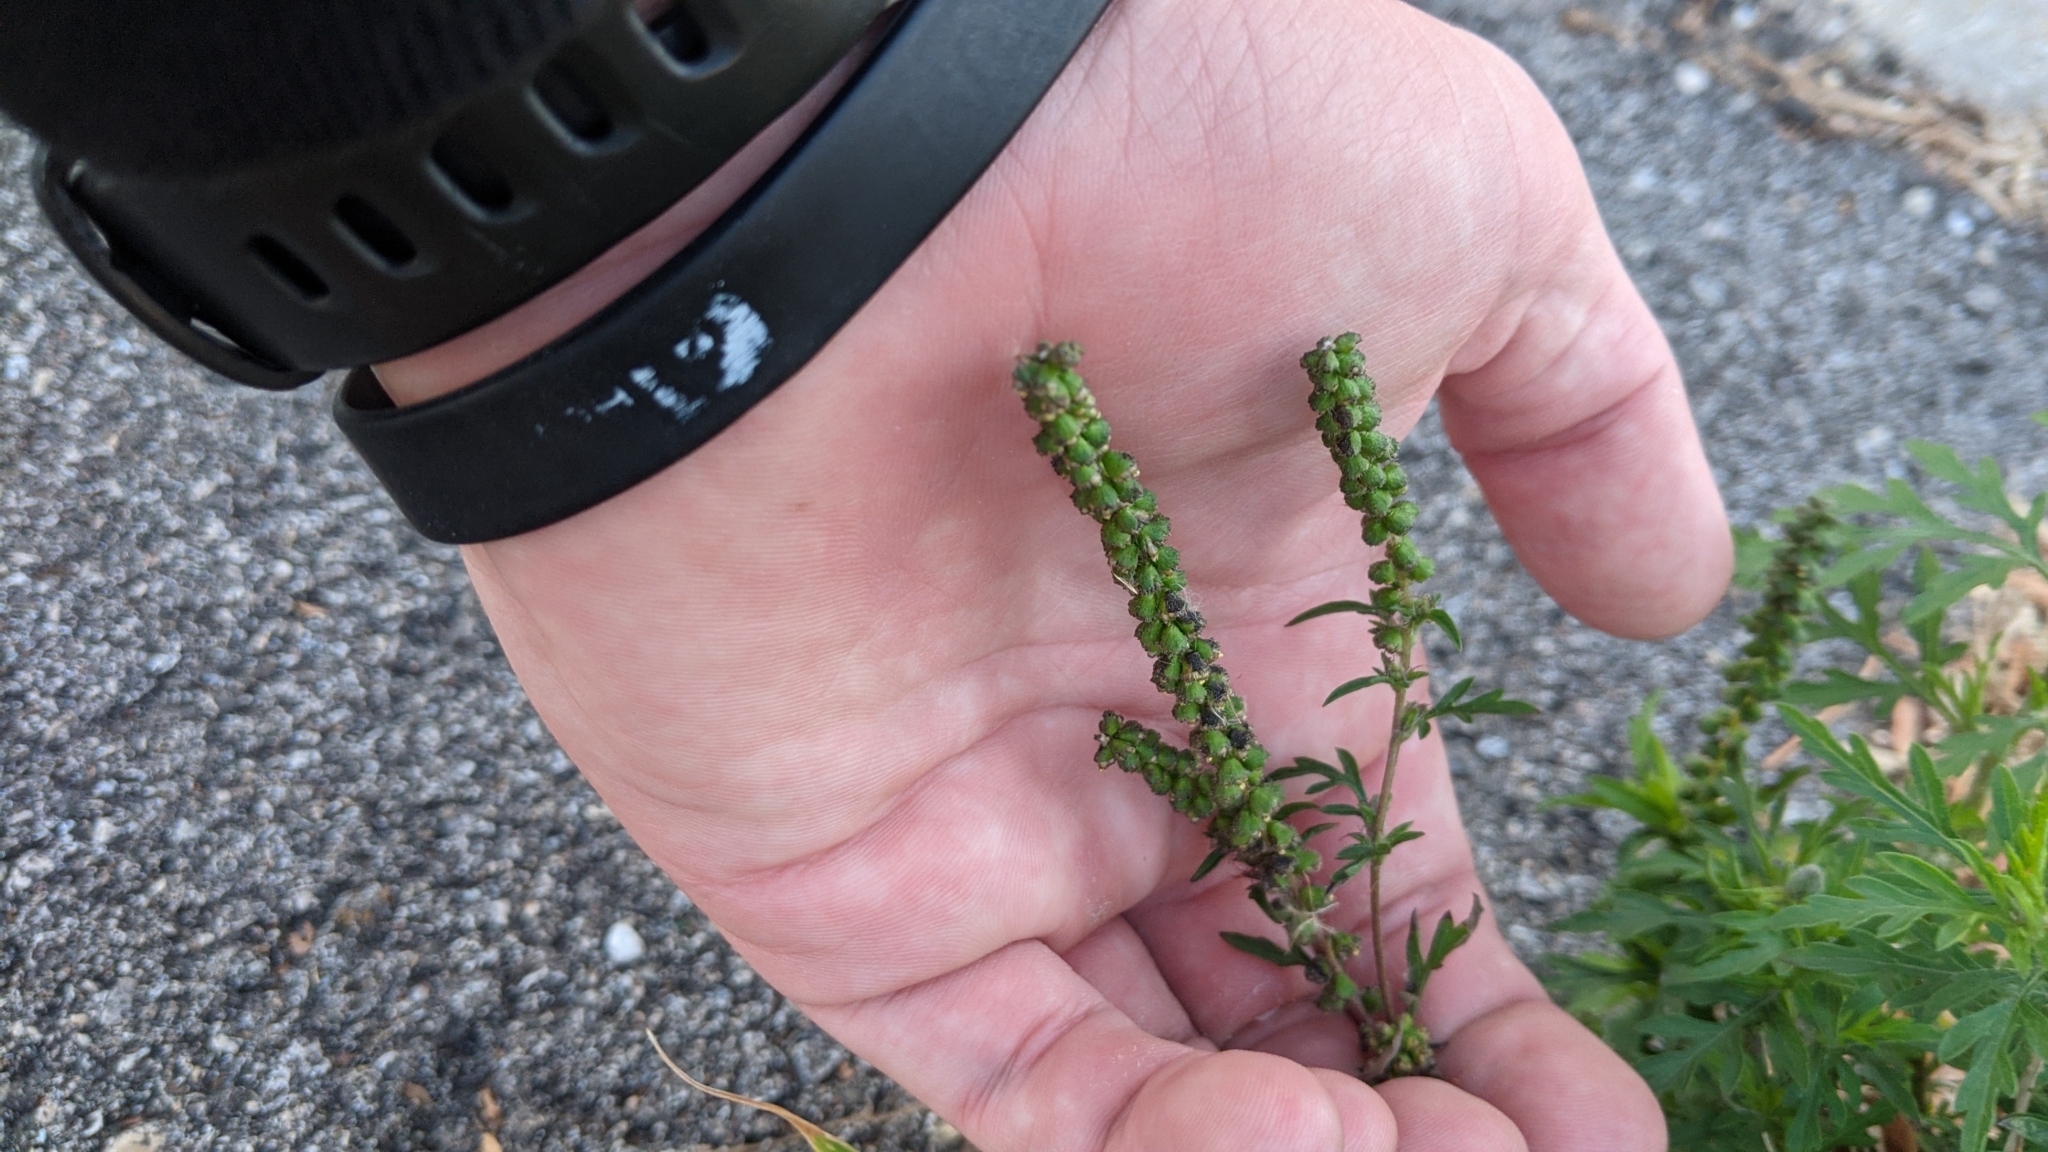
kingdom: Plantae
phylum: Tracheophyta
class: Magnoliopsida
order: Asterales
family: Asteraceae
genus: Ambrosia
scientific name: Ambrosia artemisiifolia
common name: Annual ragweed
